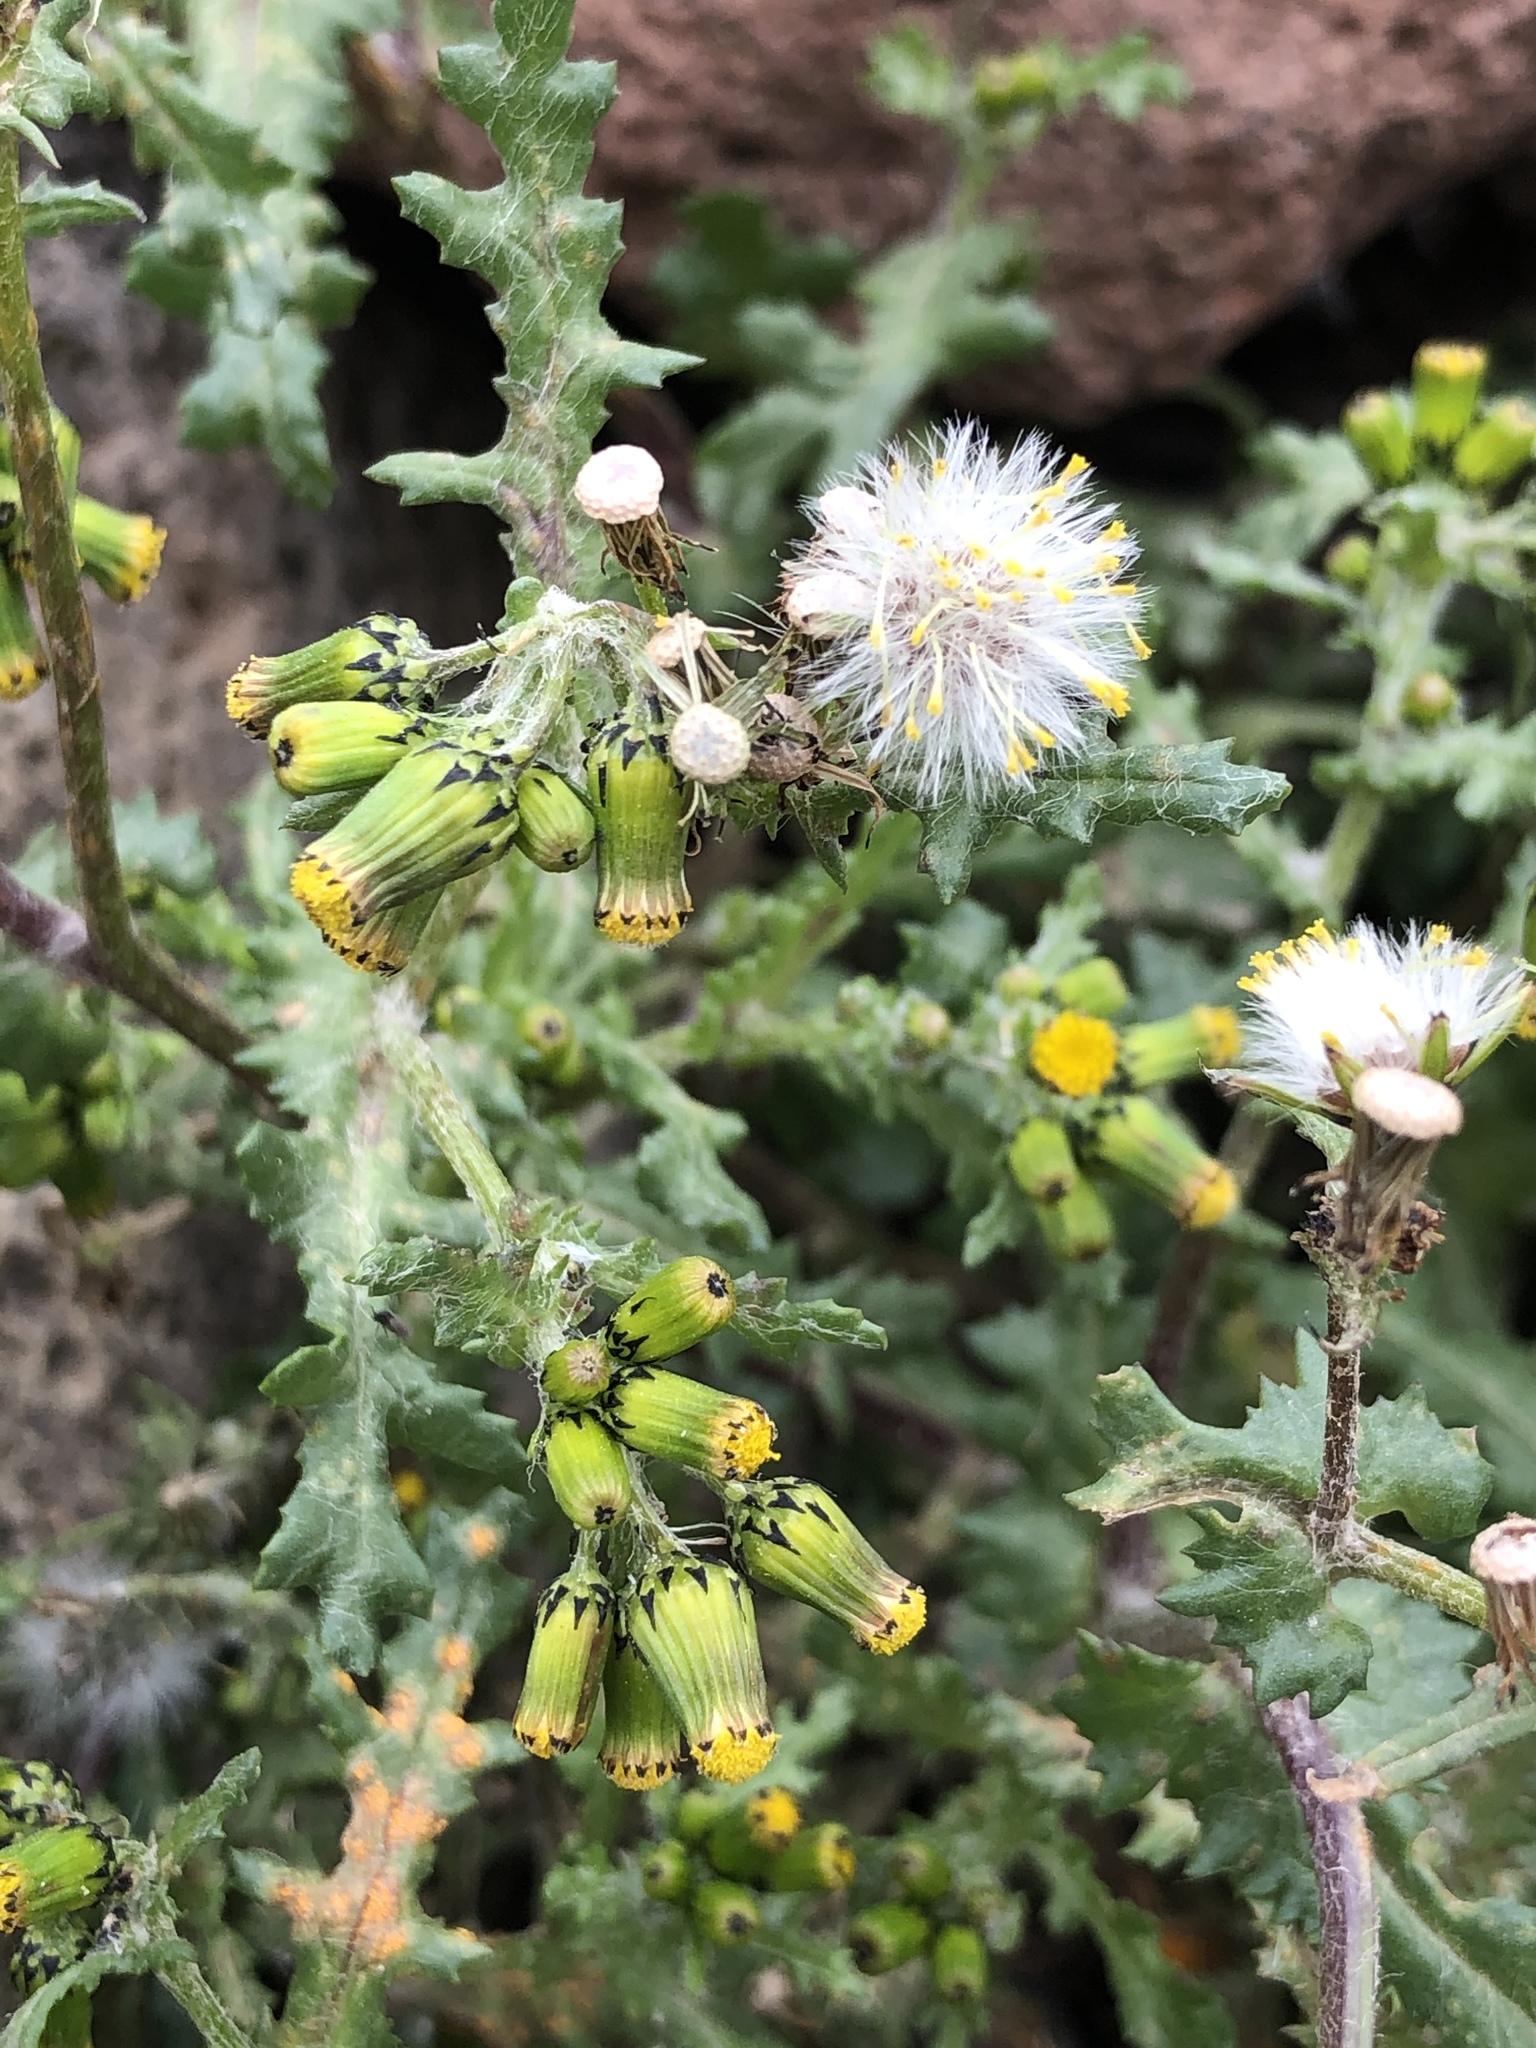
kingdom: Plantae
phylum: Tracheophyta
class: Magnoliopsida
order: Asterales
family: Asteraceae
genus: Senecio
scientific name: Senecio vulgaris
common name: Old-man-in-the-spring
